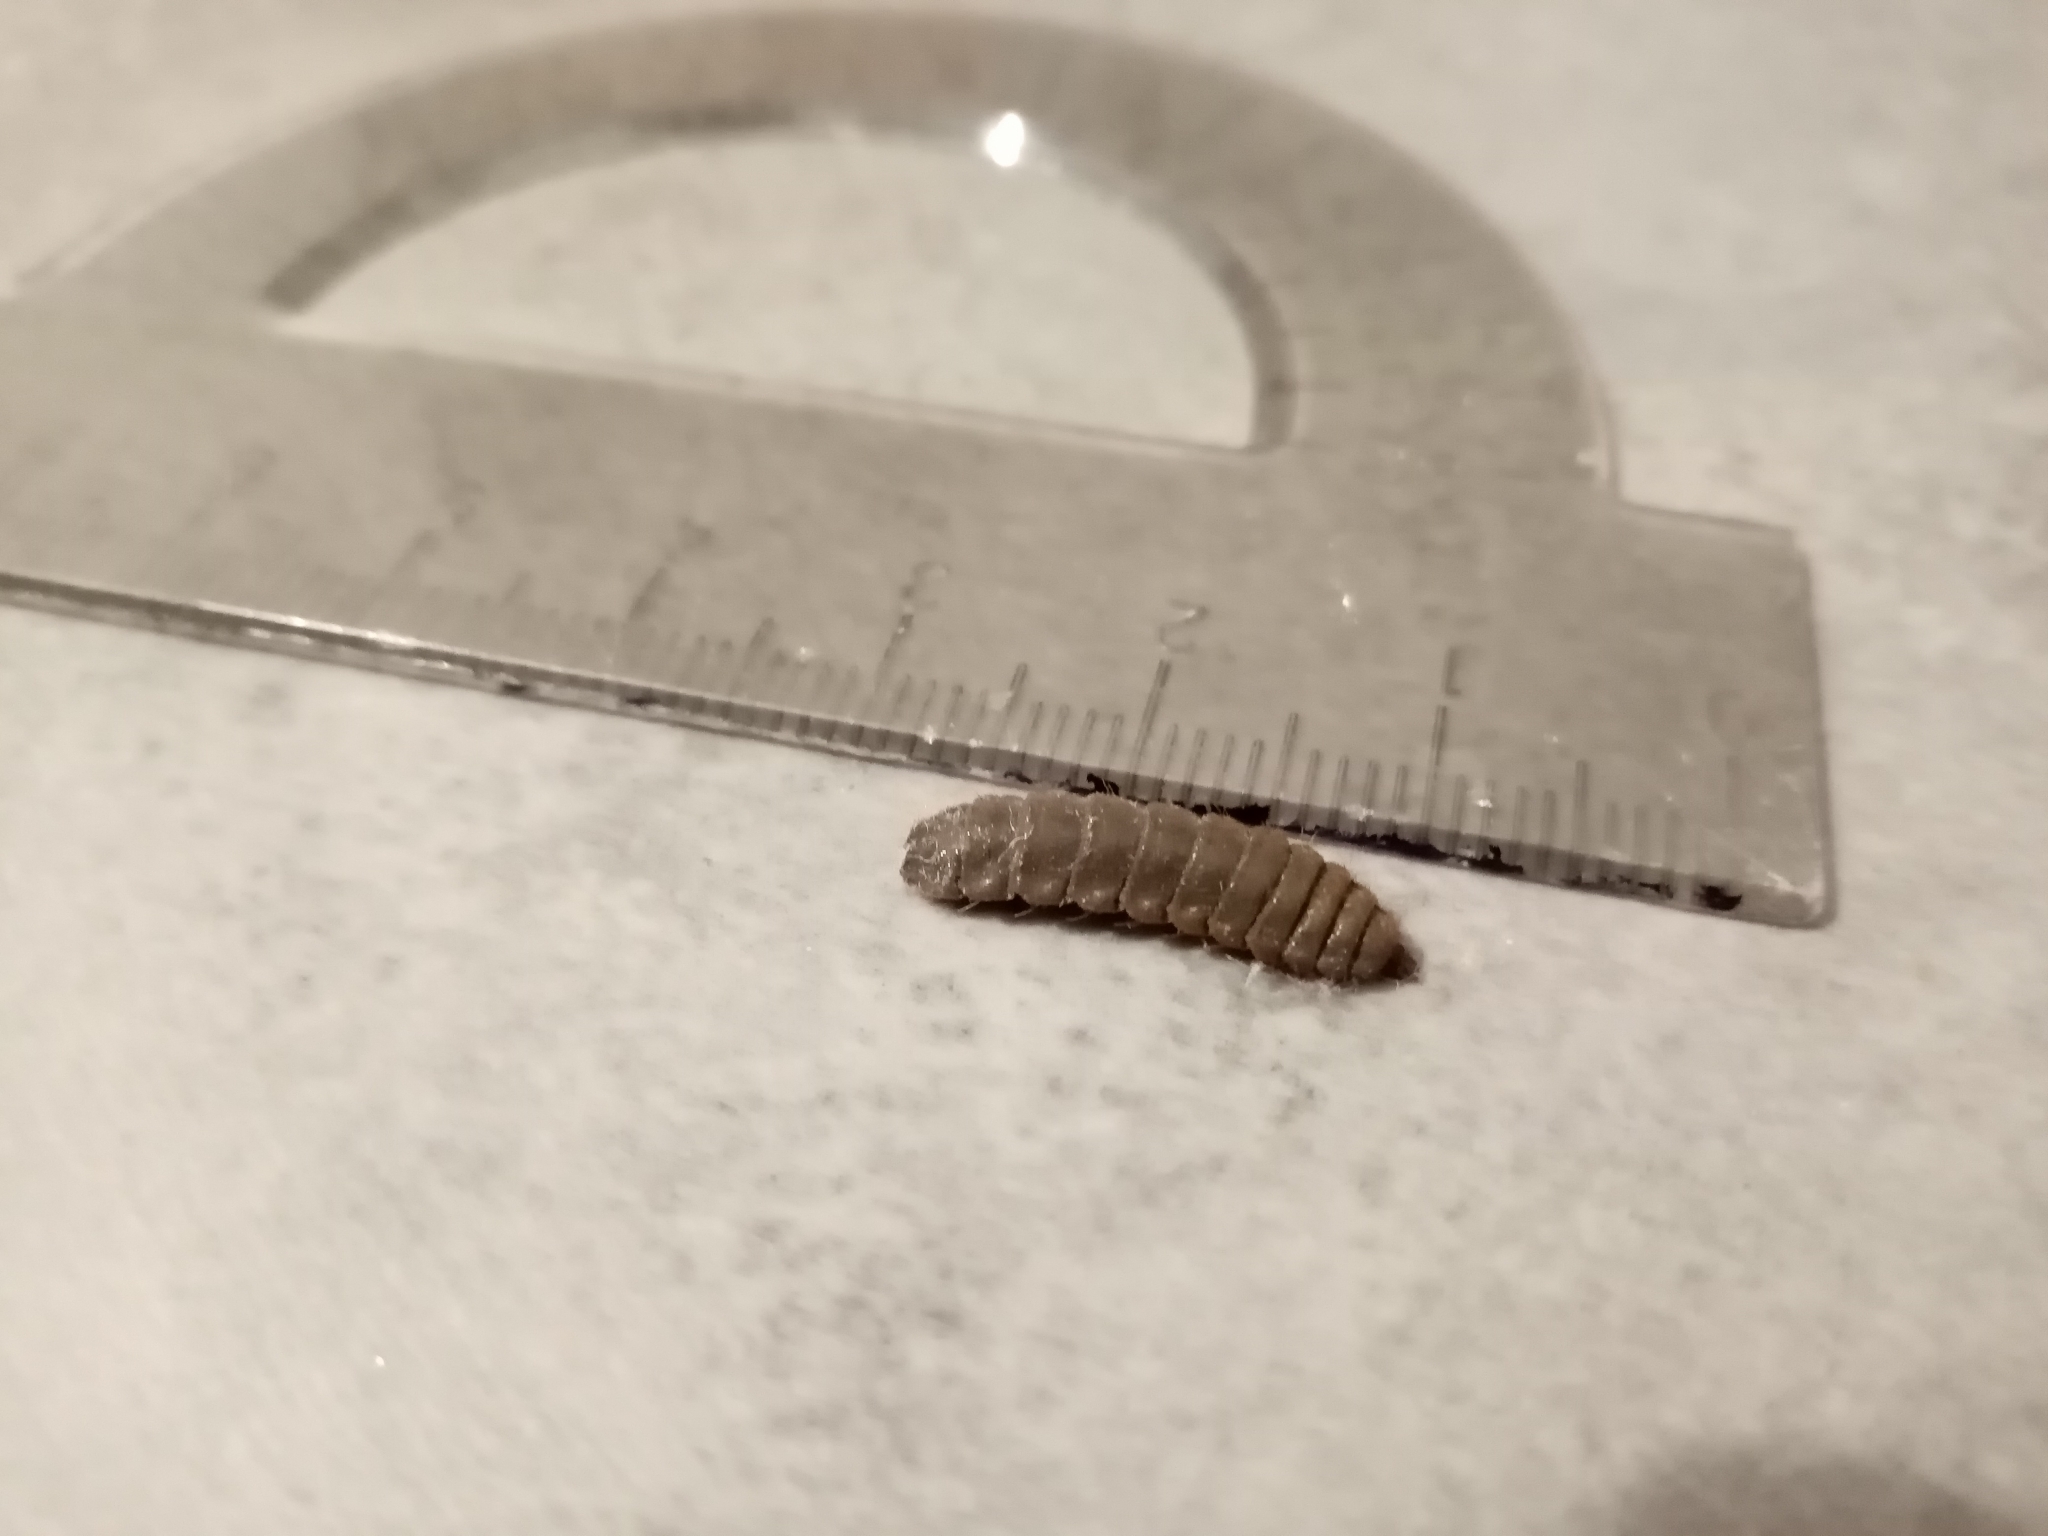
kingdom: Animalia
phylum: Arthropoda
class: Insecta
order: Diptera
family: Stratiomyidae
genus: Hermetia
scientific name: Hermetia illucens
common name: Black soldier fly
